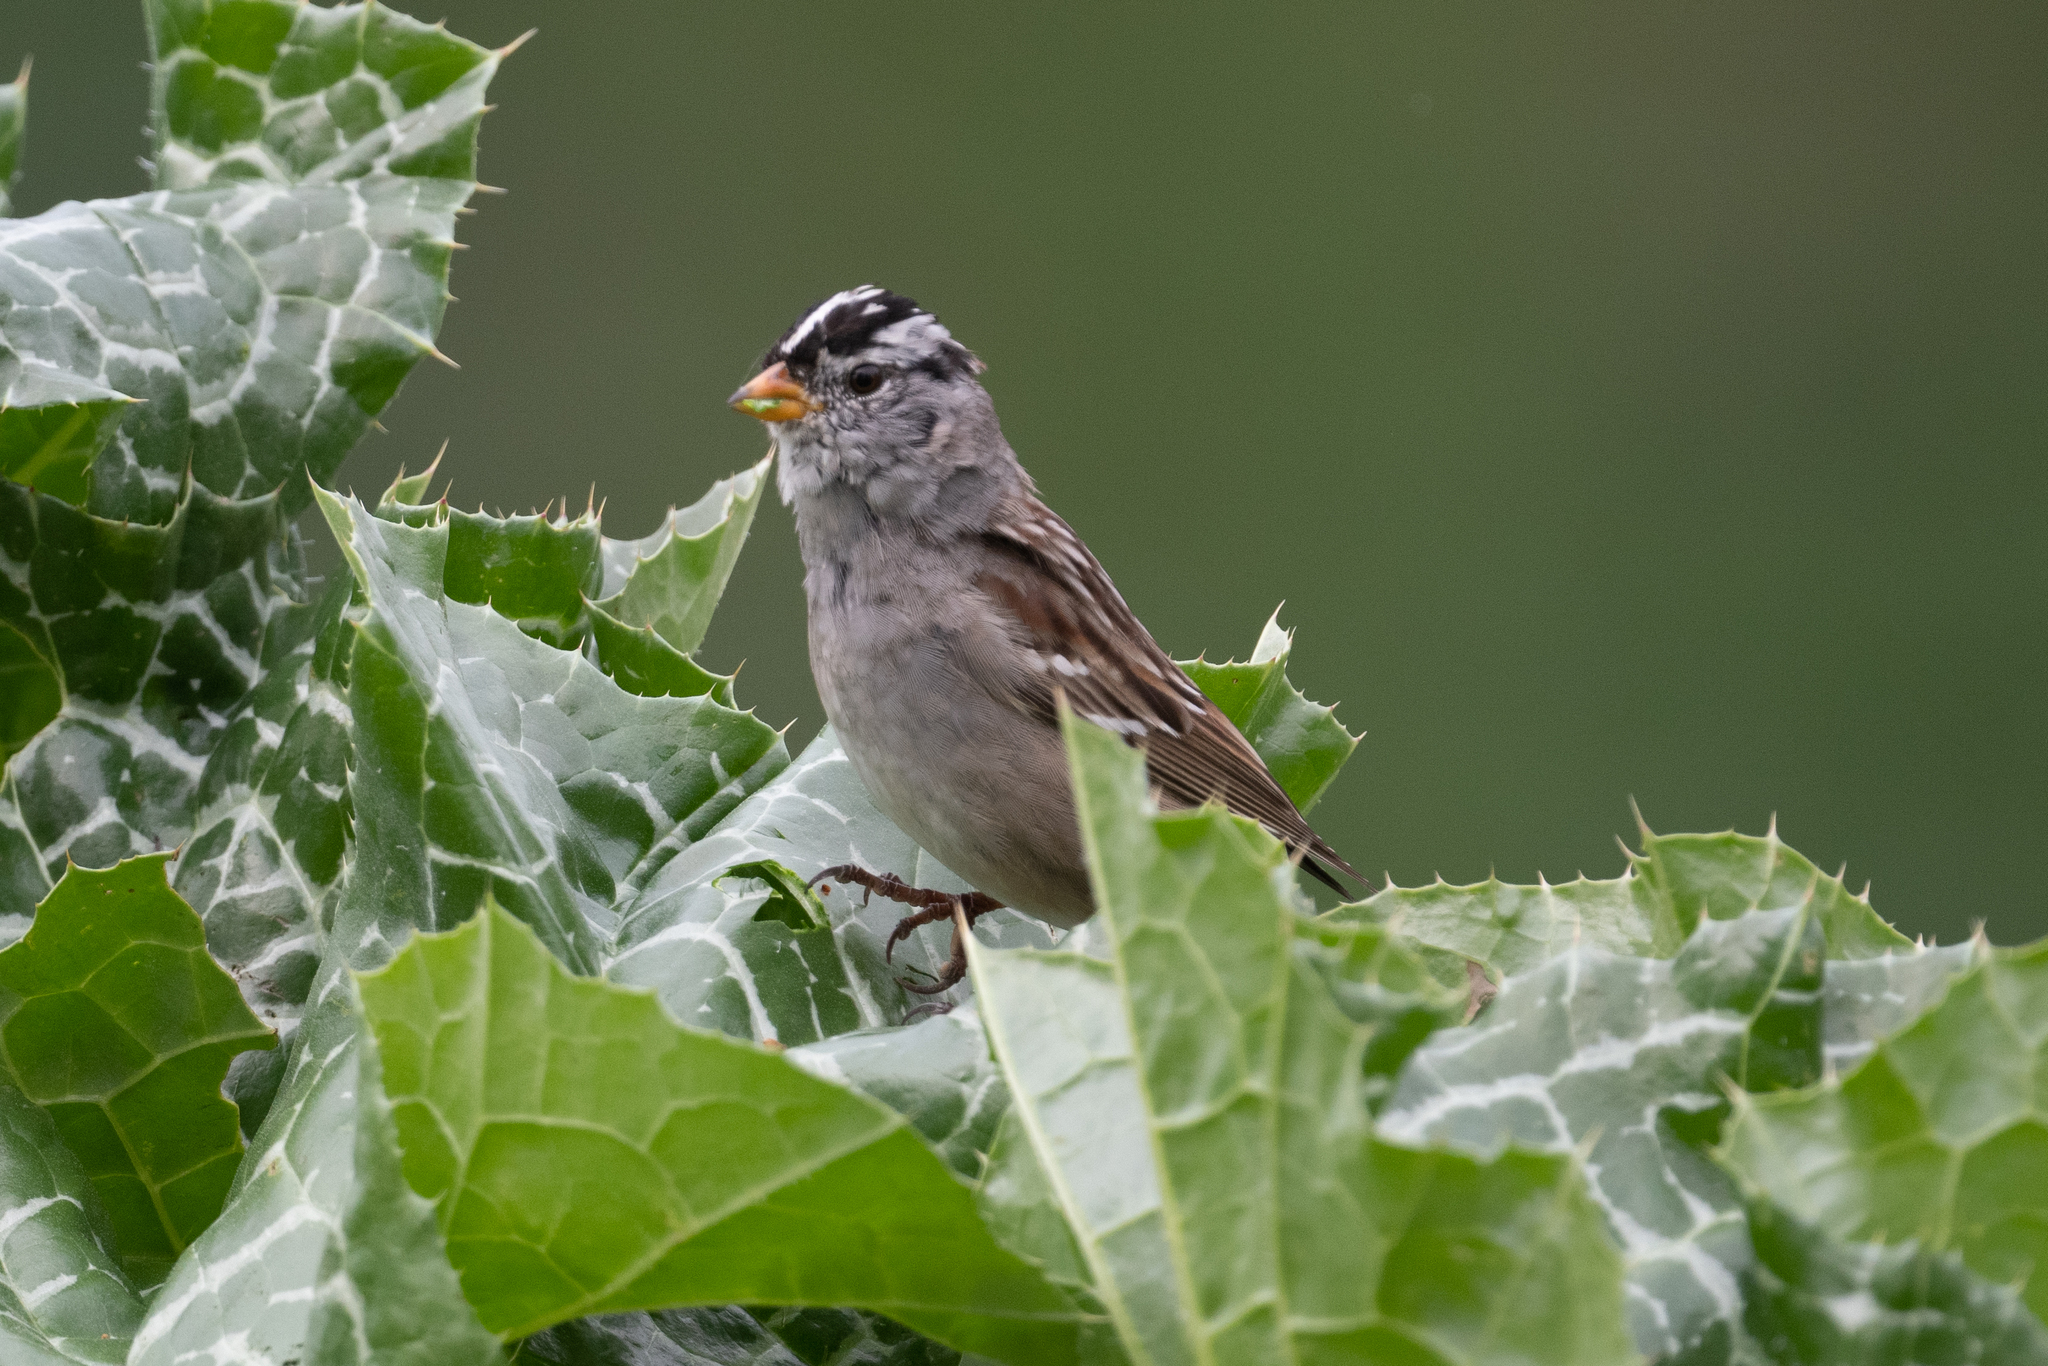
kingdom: Animalia
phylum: Chordata
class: Aves
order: Passeriformes
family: Passerellidae
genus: Zonotrichia
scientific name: Zonotrichia leucophrys
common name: White-crowned sparrow
